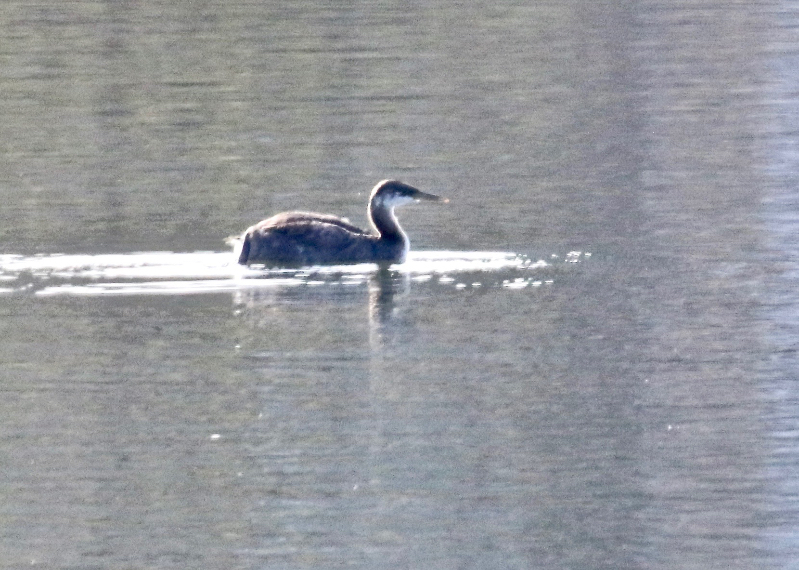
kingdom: Animalia
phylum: Chordata
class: Aves
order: Podicipediformes
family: Podicipedidae
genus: Podiceps
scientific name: Podiceps grisegena
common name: Red-necked grebe
